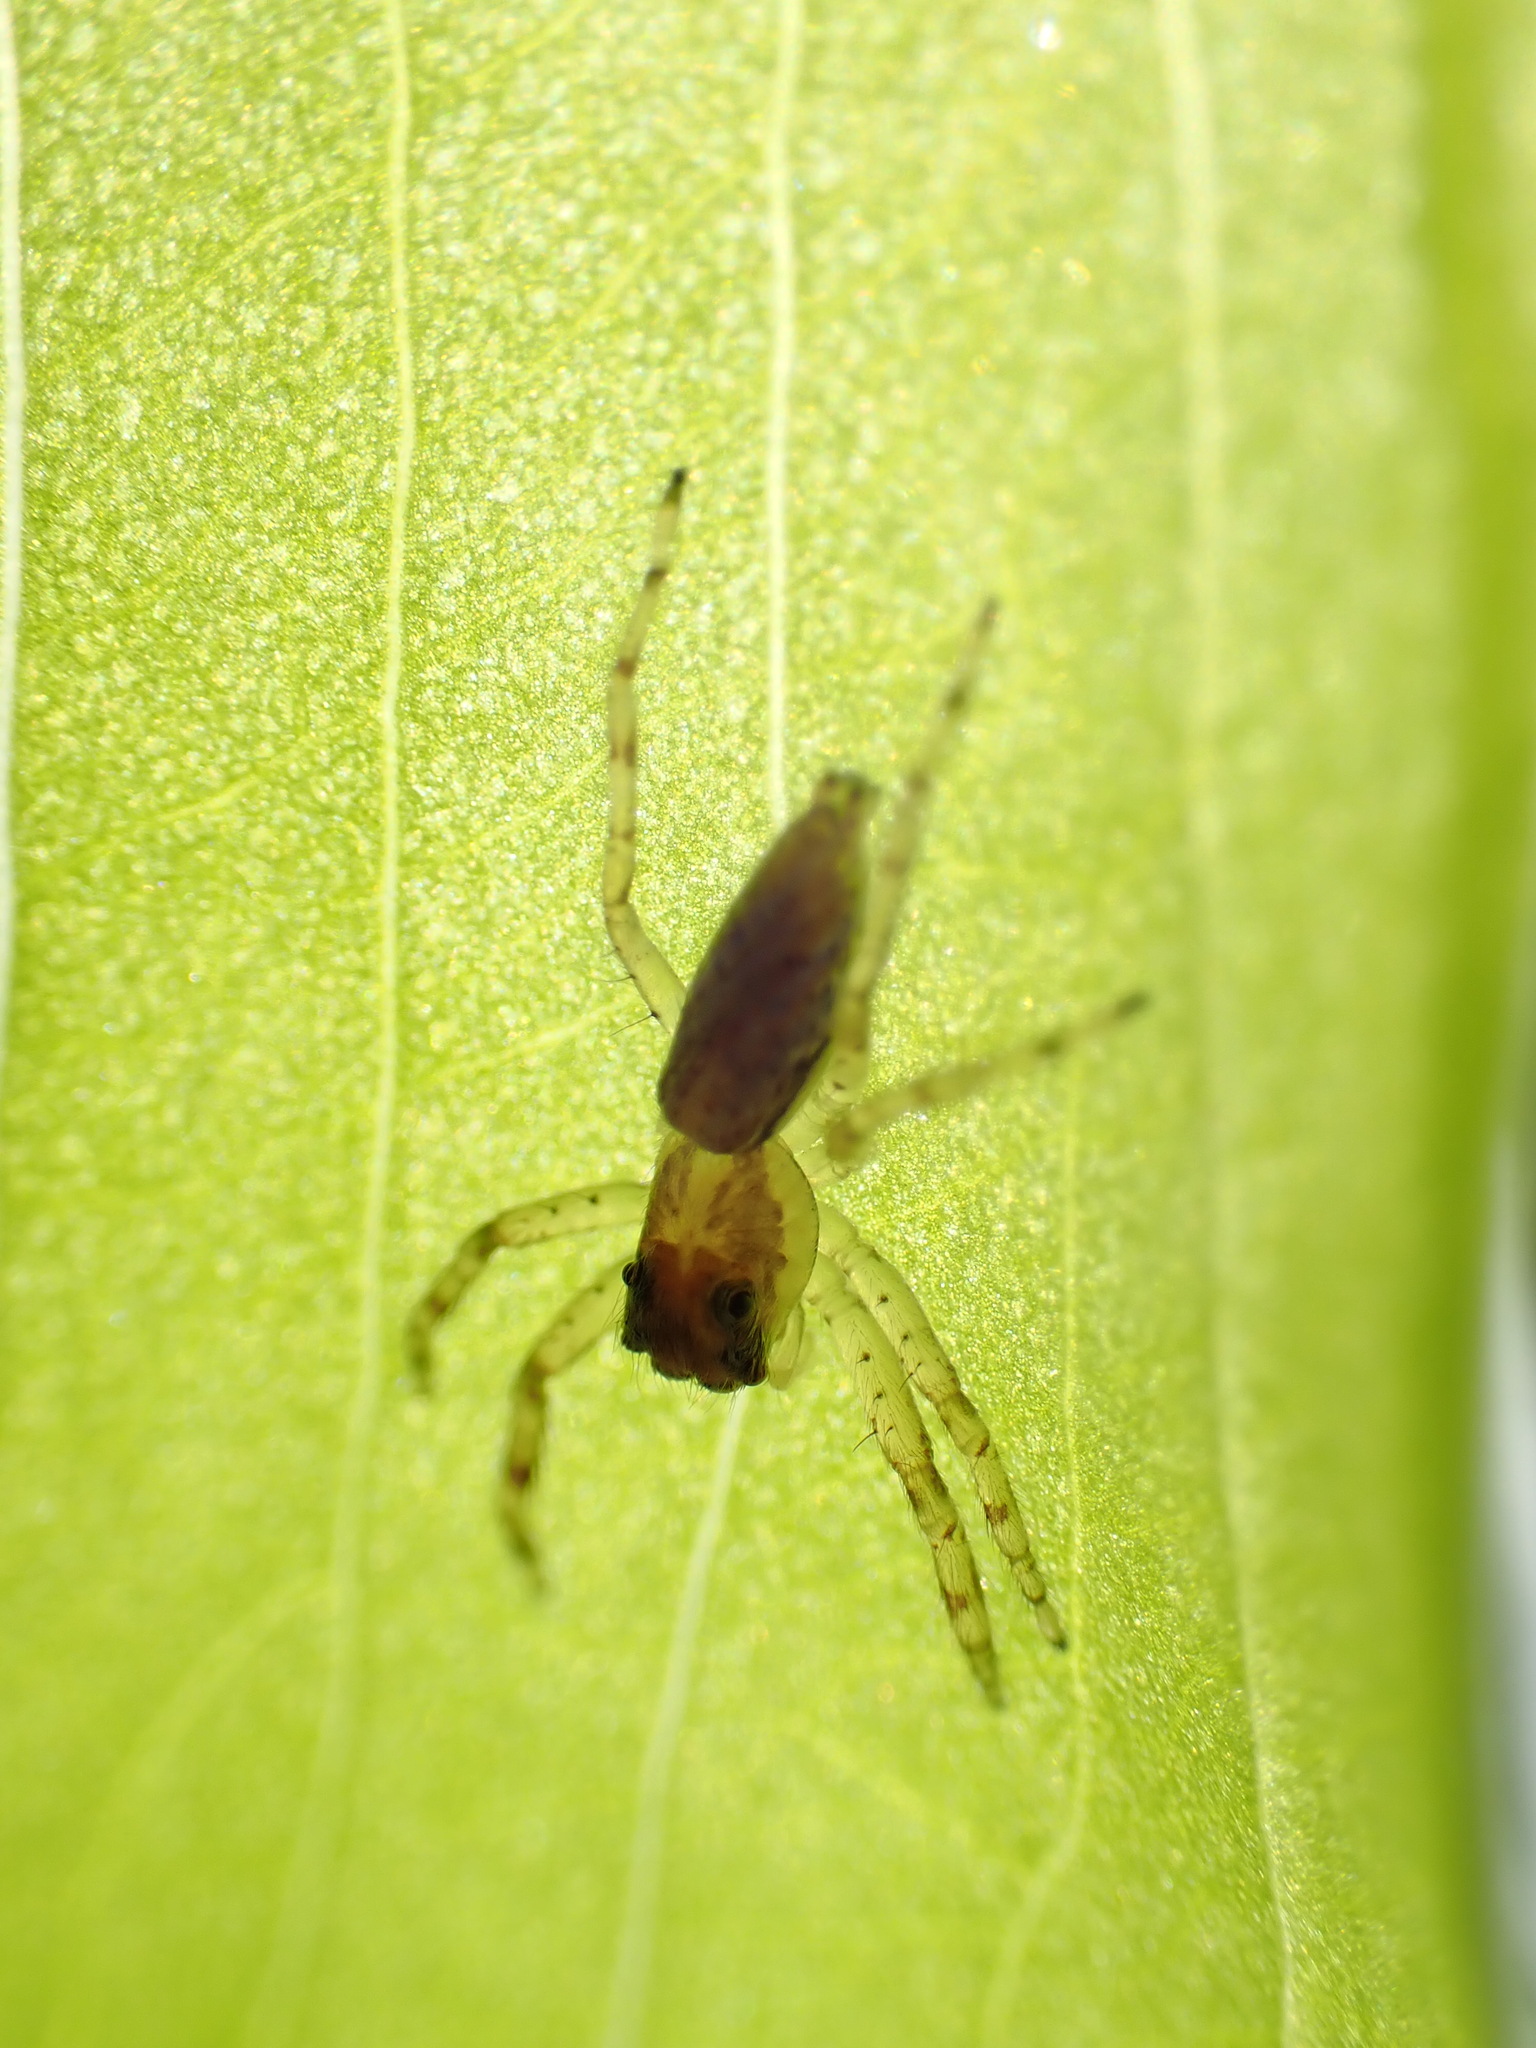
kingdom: Animalia
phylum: Arthropoda
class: Arachnida
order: Araneae
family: Salticidae
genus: Helpis
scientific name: Helpis minitabunda
